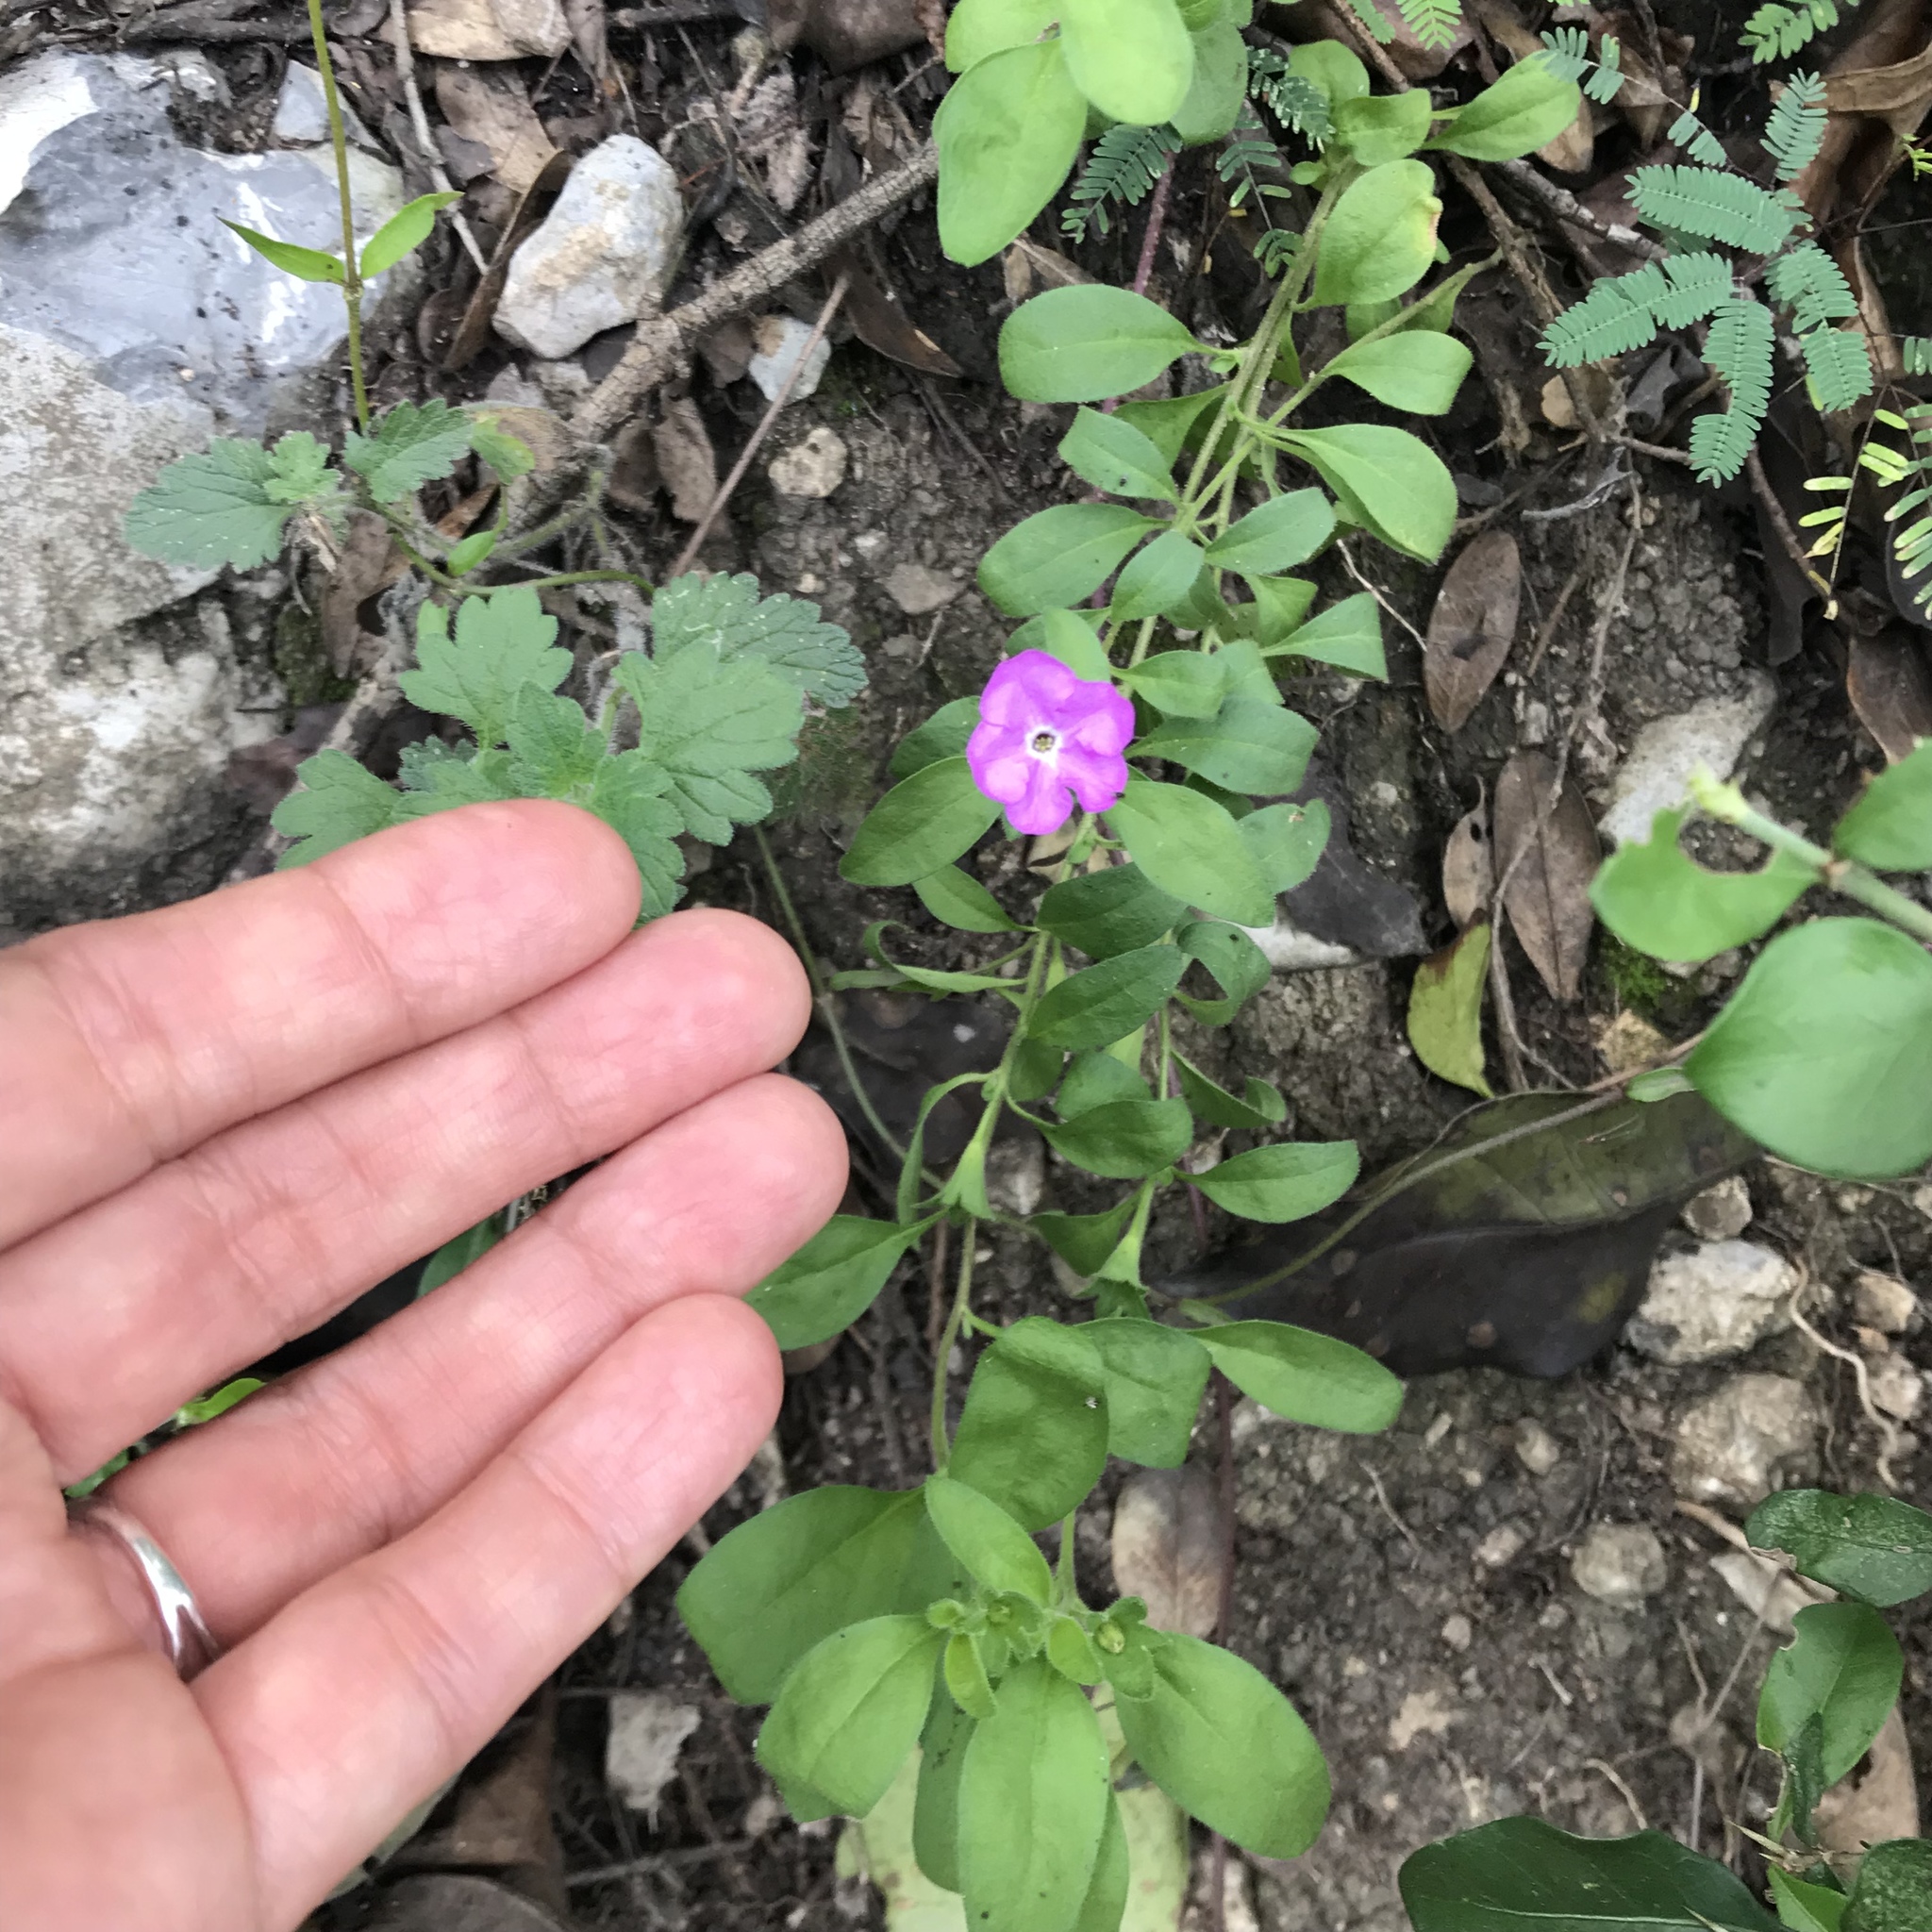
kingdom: Plantae
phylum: Tracheophyta
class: Magnoliopsida
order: Solanales
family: Solanaceae
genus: Hunzikeria
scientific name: Hunzikeria texana
